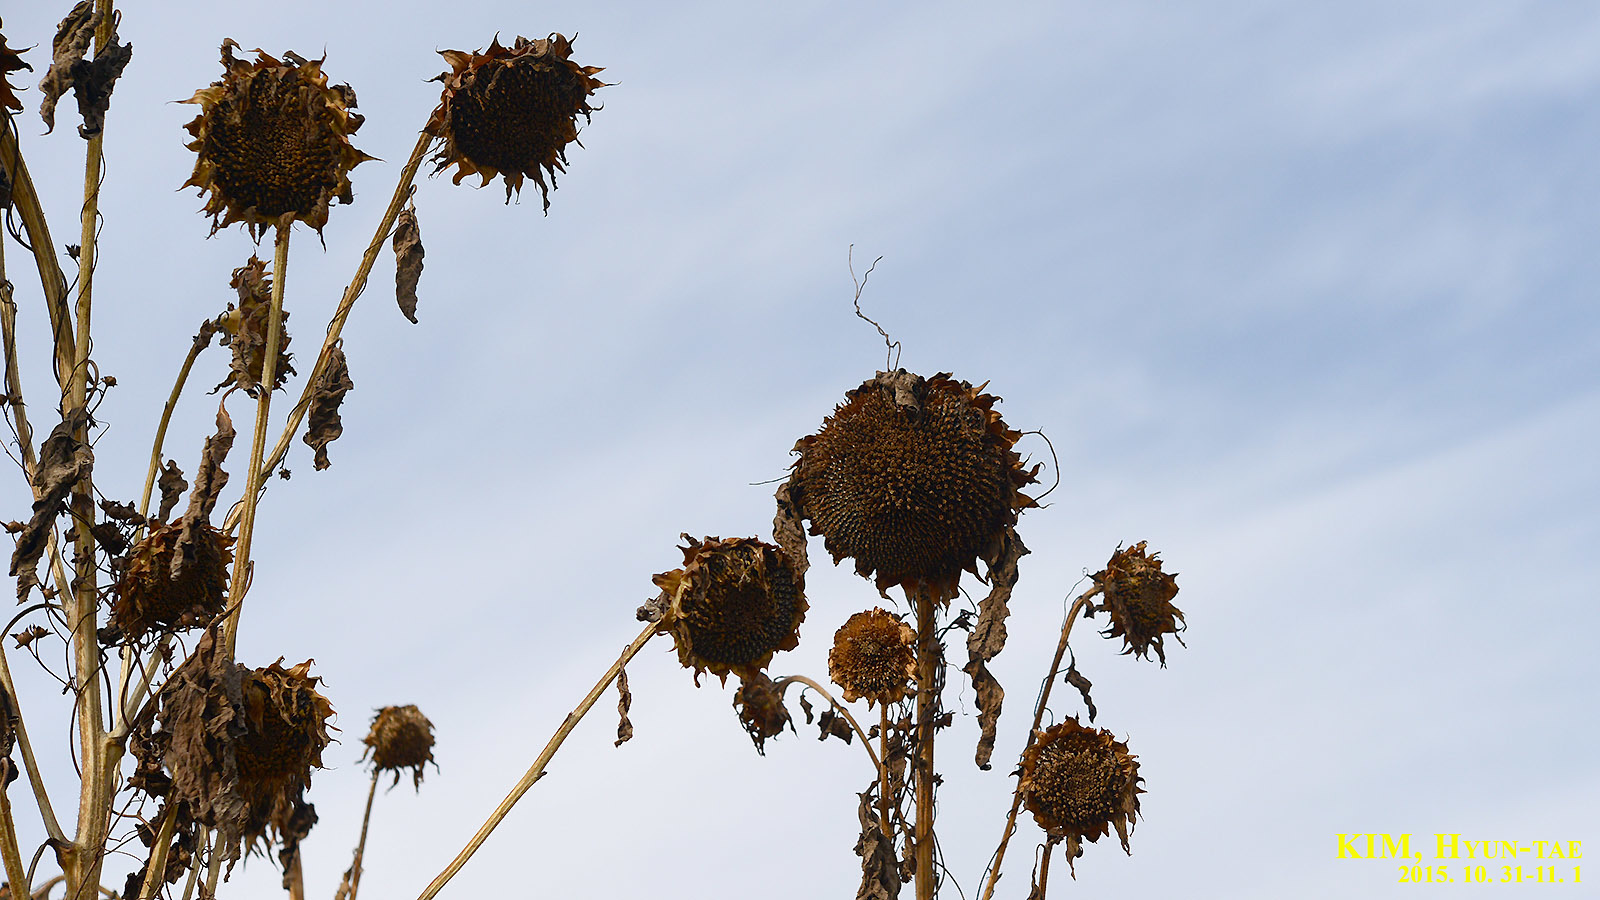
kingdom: Plantae
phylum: Tracheophyta
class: Magnoliopsida
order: Asterales
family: Asteraceae
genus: Helianthus
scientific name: Helianthus annuus
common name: Sunflower
